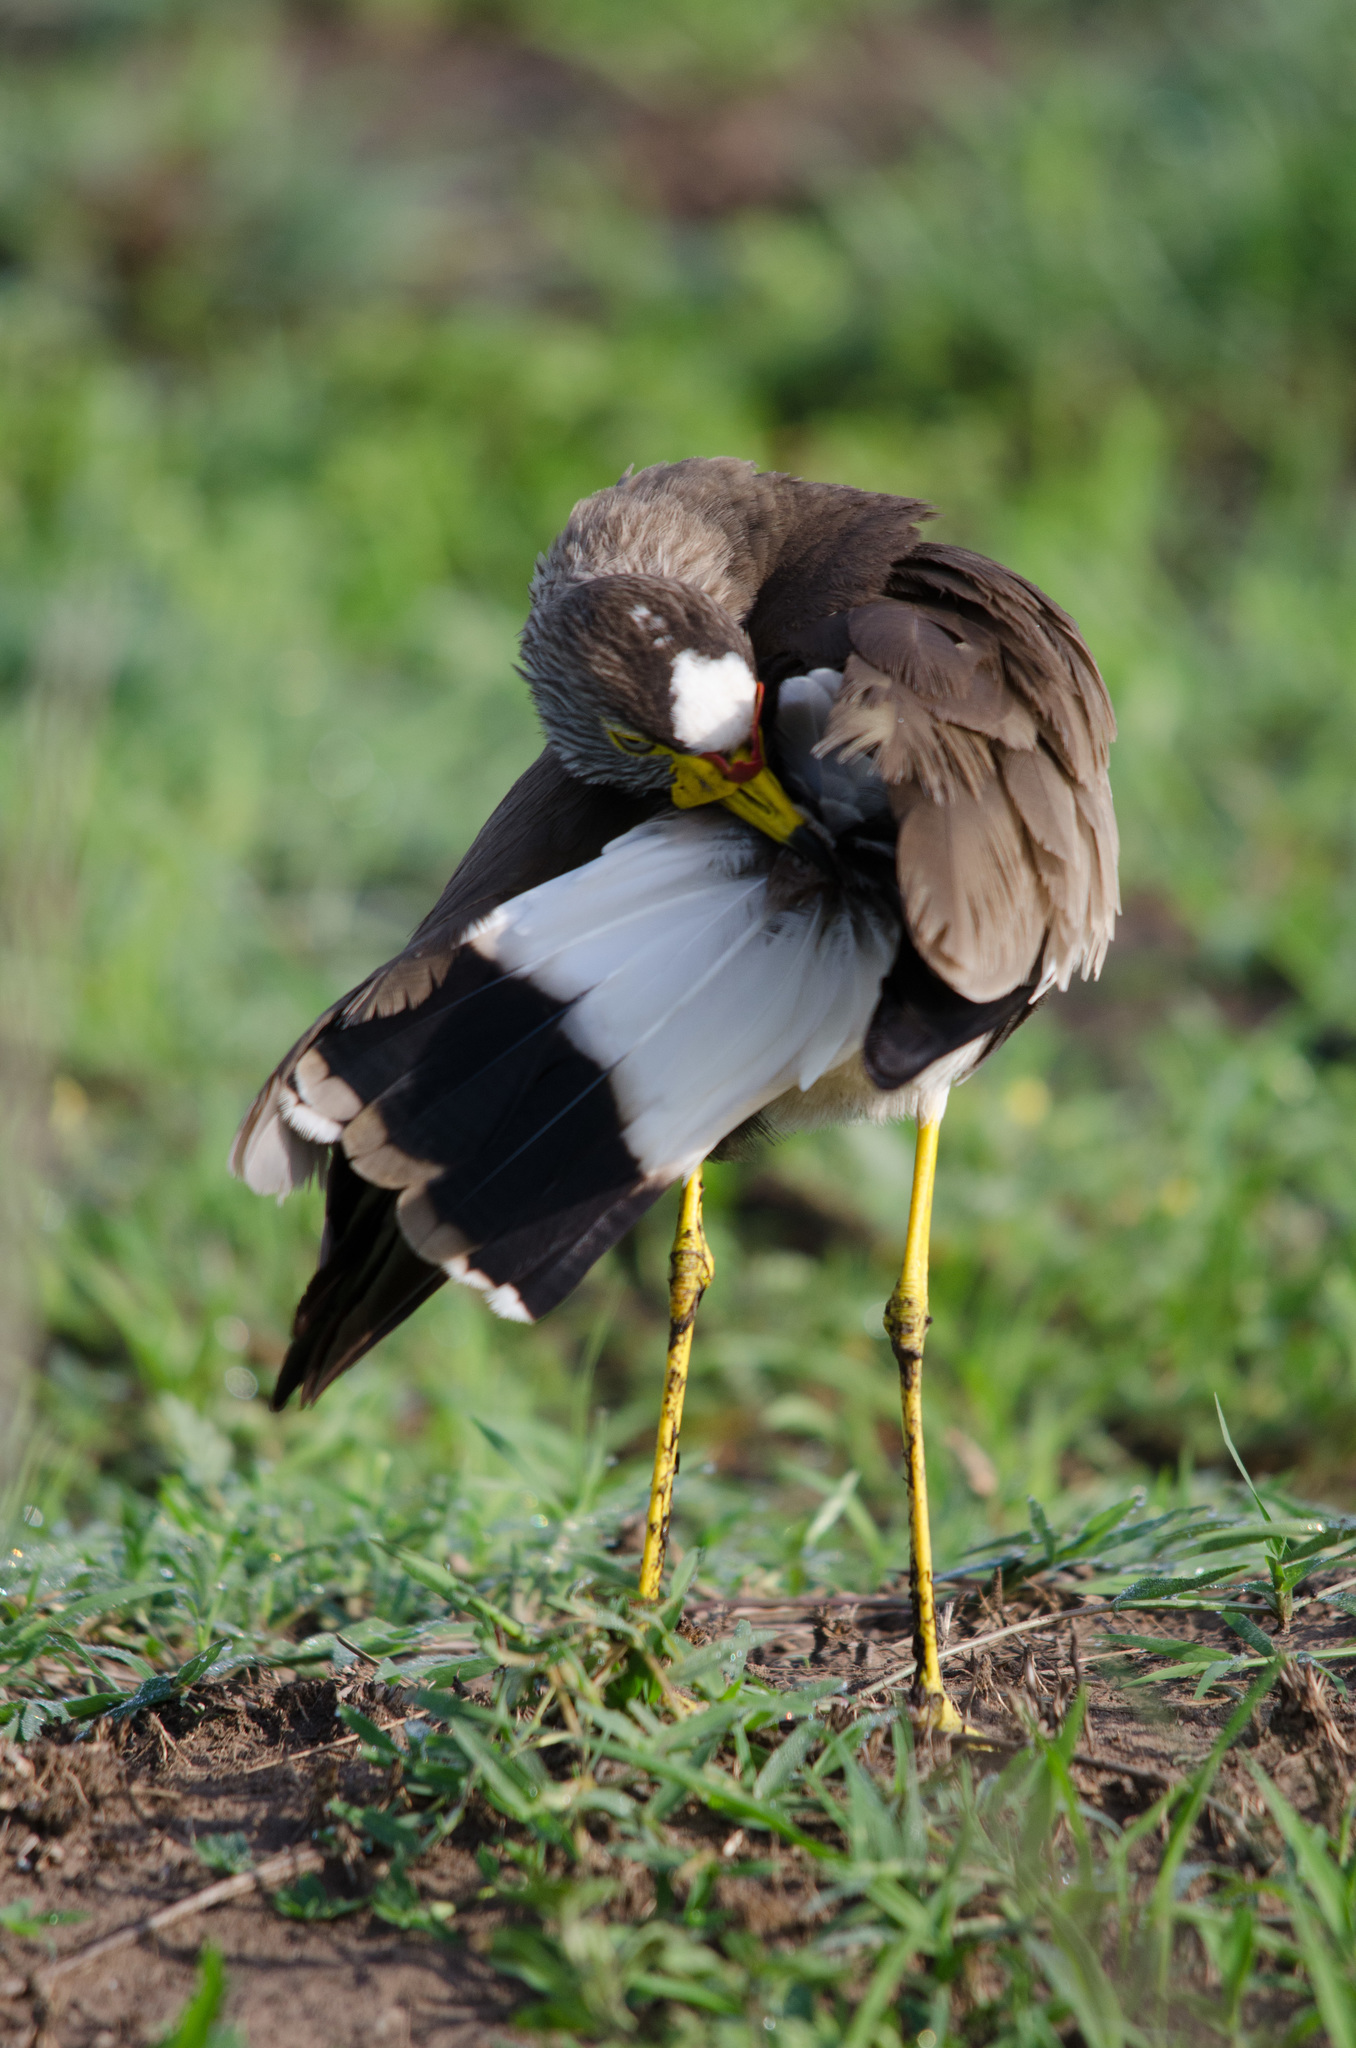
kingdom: Animalia
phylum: Chordata
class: Aves
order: Charadriiformes
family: Charadriidae
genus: Vanellus
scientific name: Vanellus senegallus
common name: African wattled lapwing
